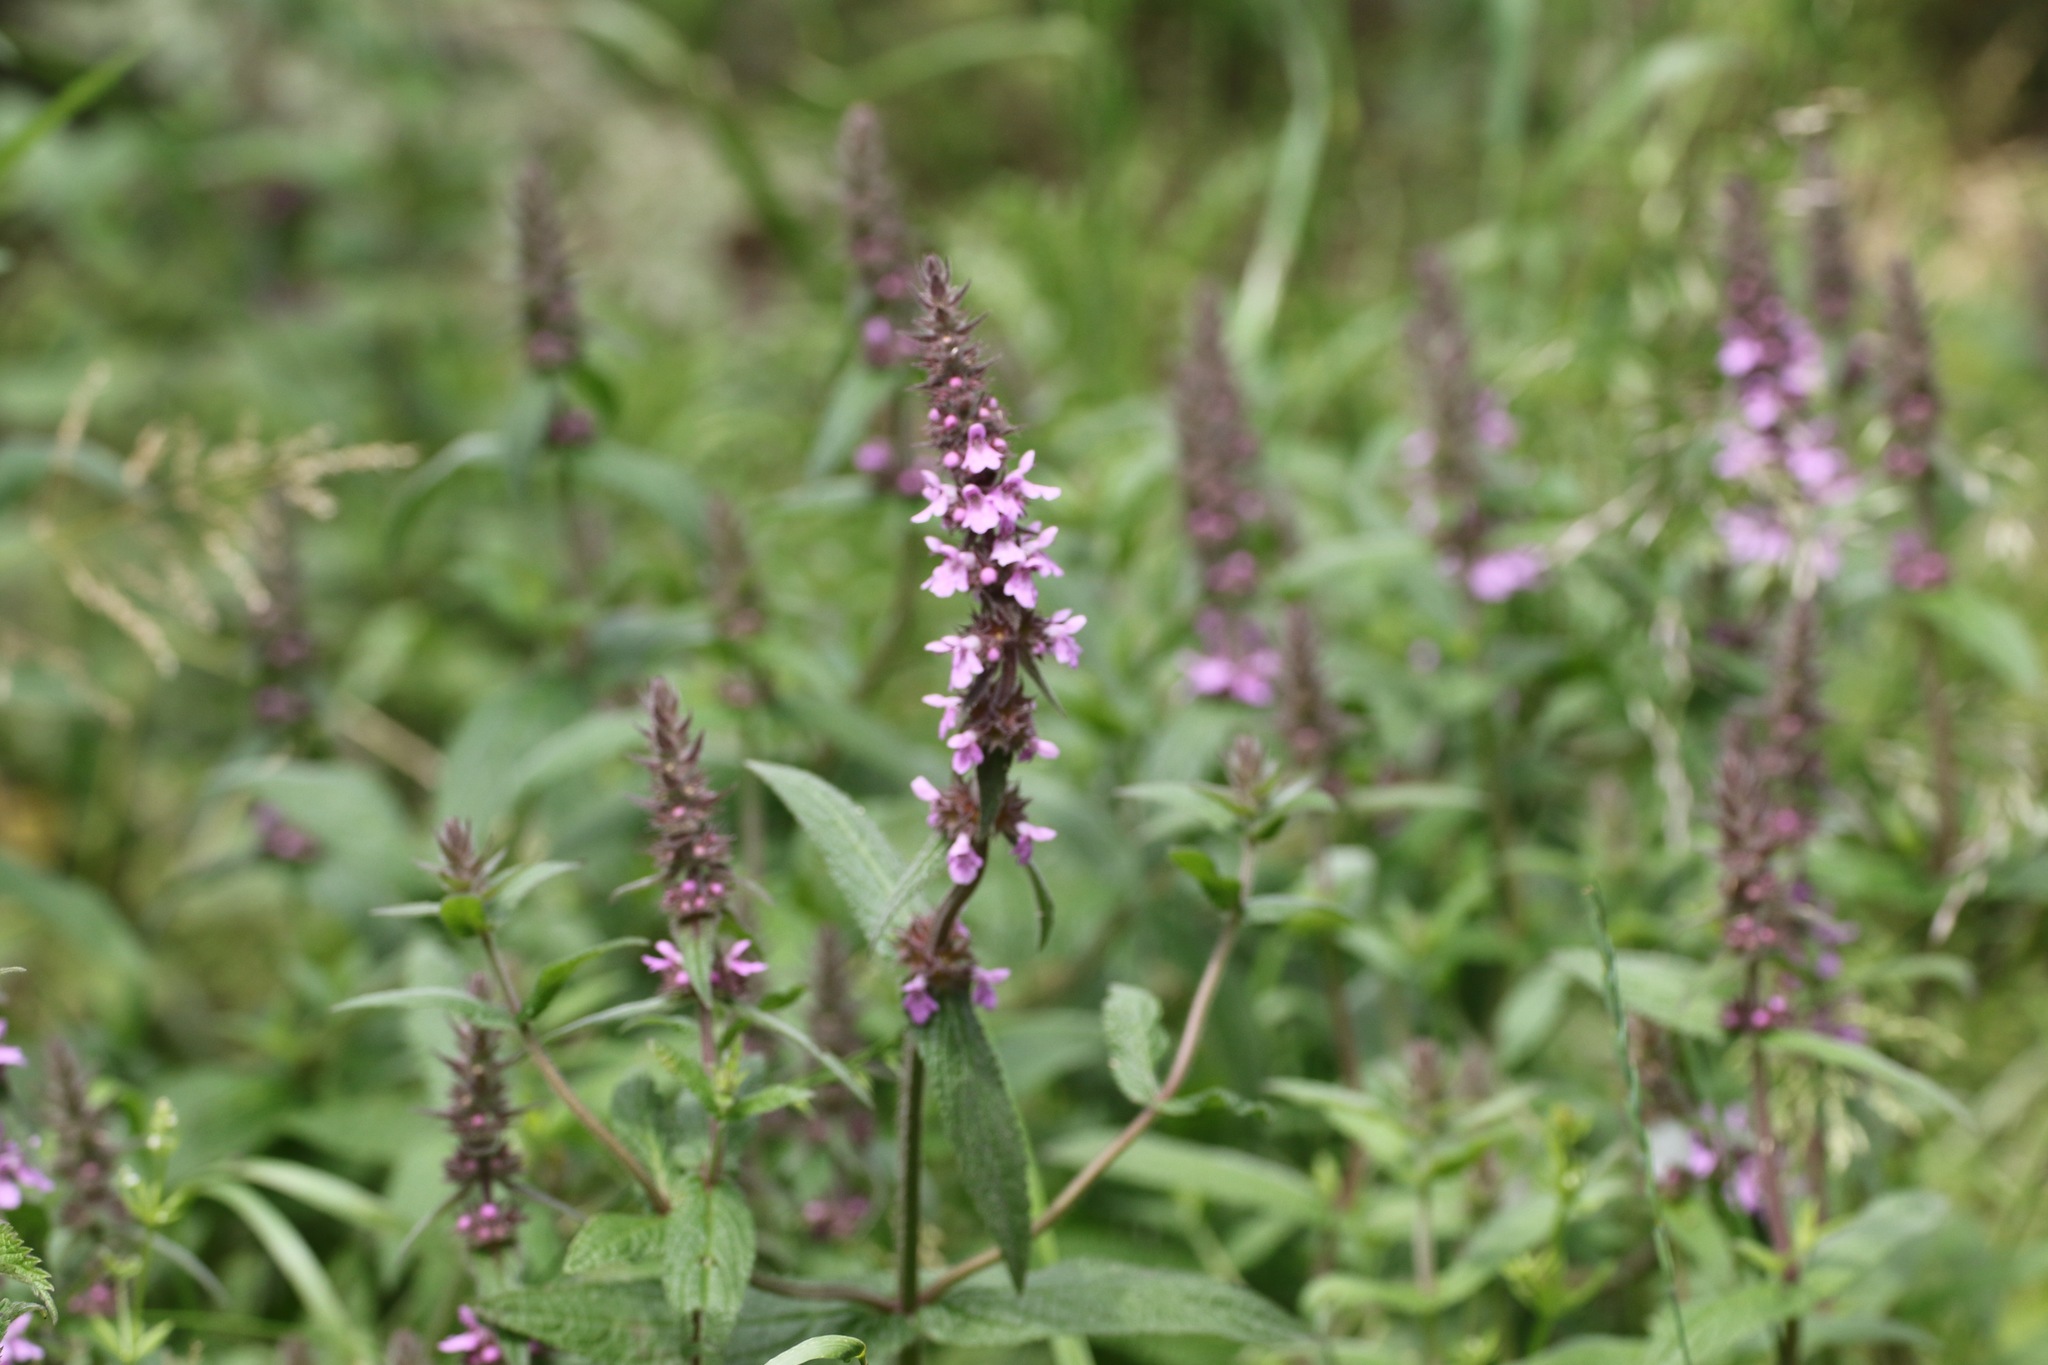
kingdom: Plantae
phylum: Tracheophyta
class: Magnoliopsida
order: Lamiales
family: Lamiaceae
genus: Stachys
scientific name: Stachys palustris
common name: Marsh woundwort
